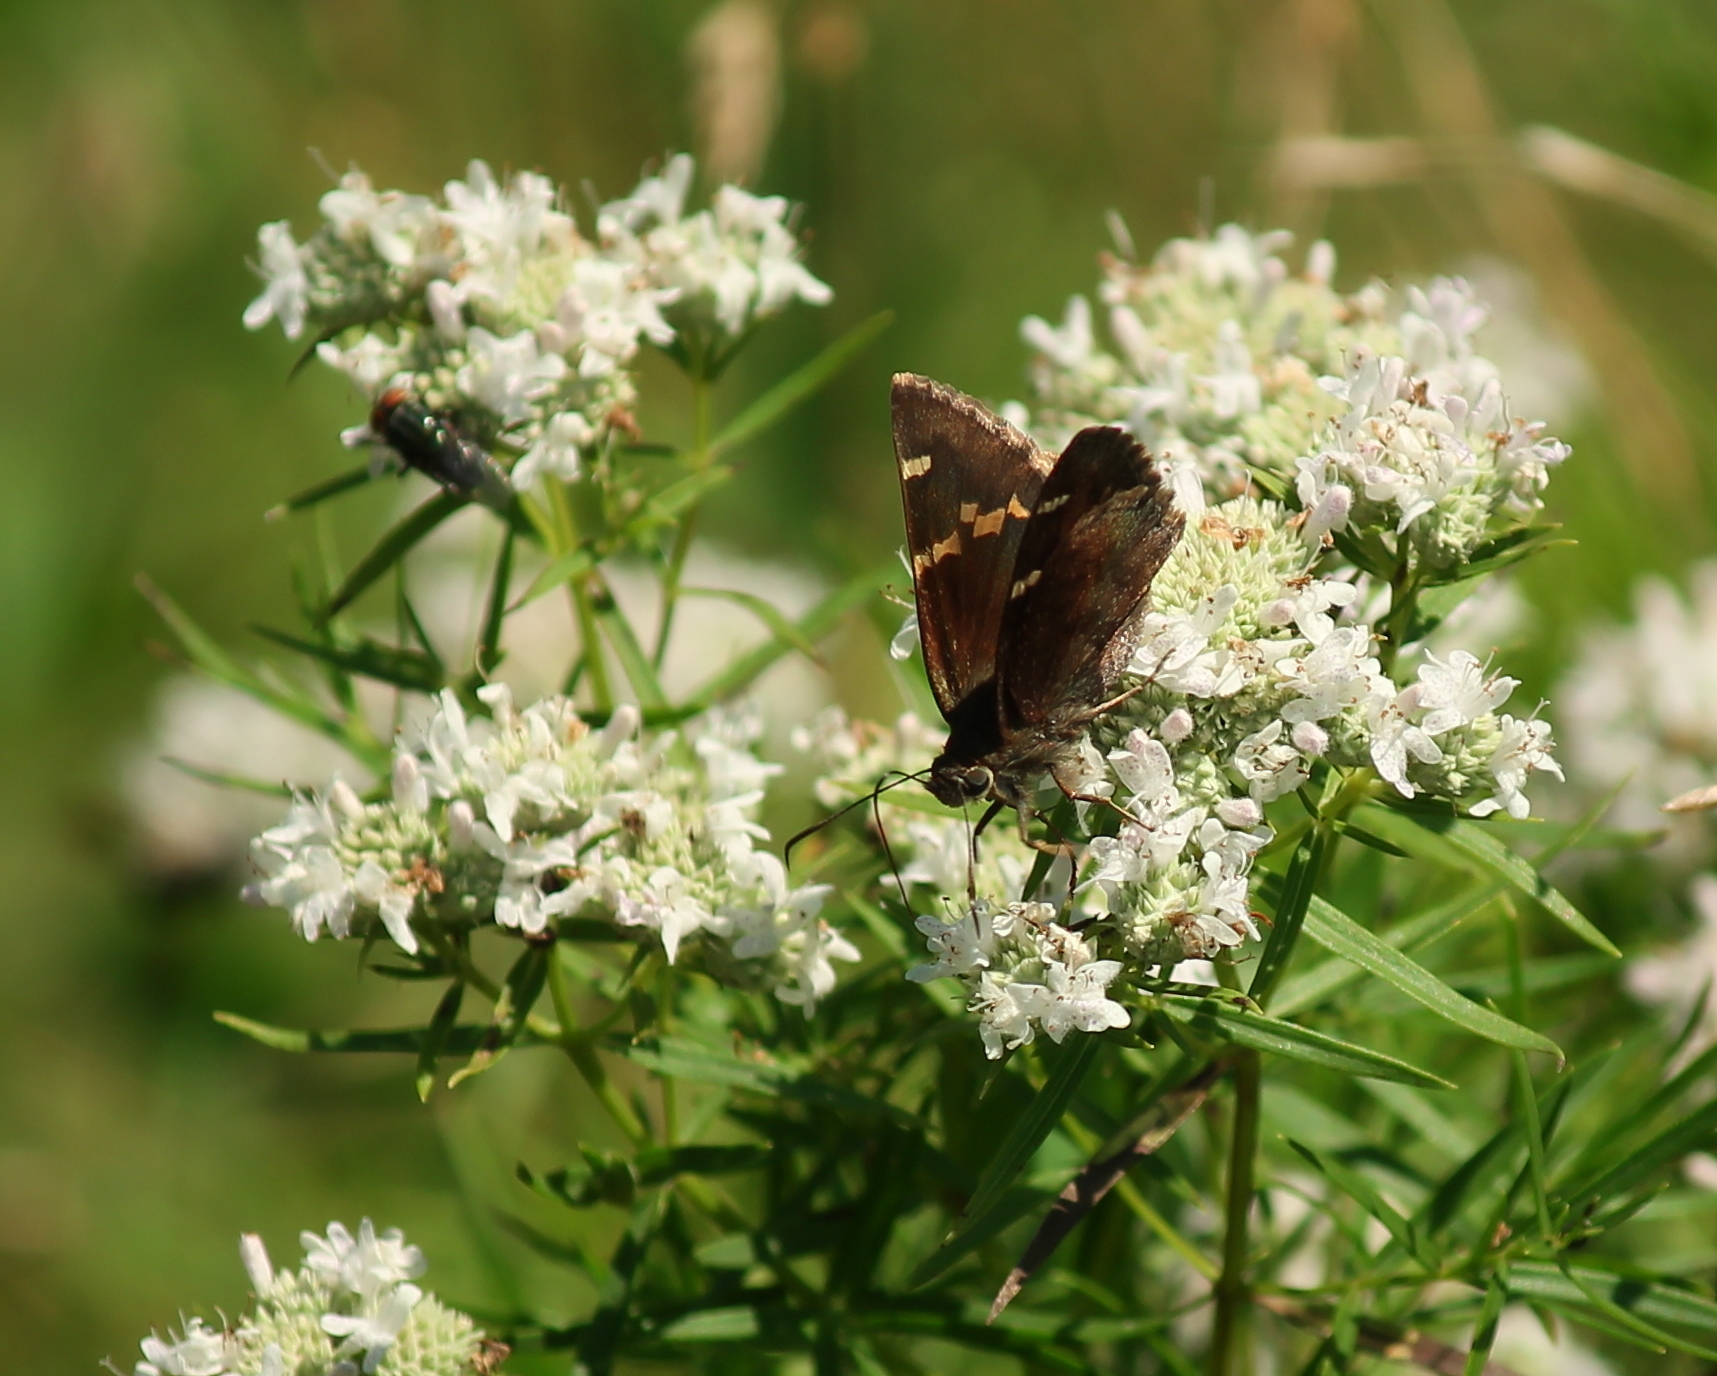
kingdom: Animalia
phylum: Arthropoda
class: Insecta
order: Lepidoptera
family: Hesperiidae
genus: Thorybes
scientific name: Thorybes daunus
